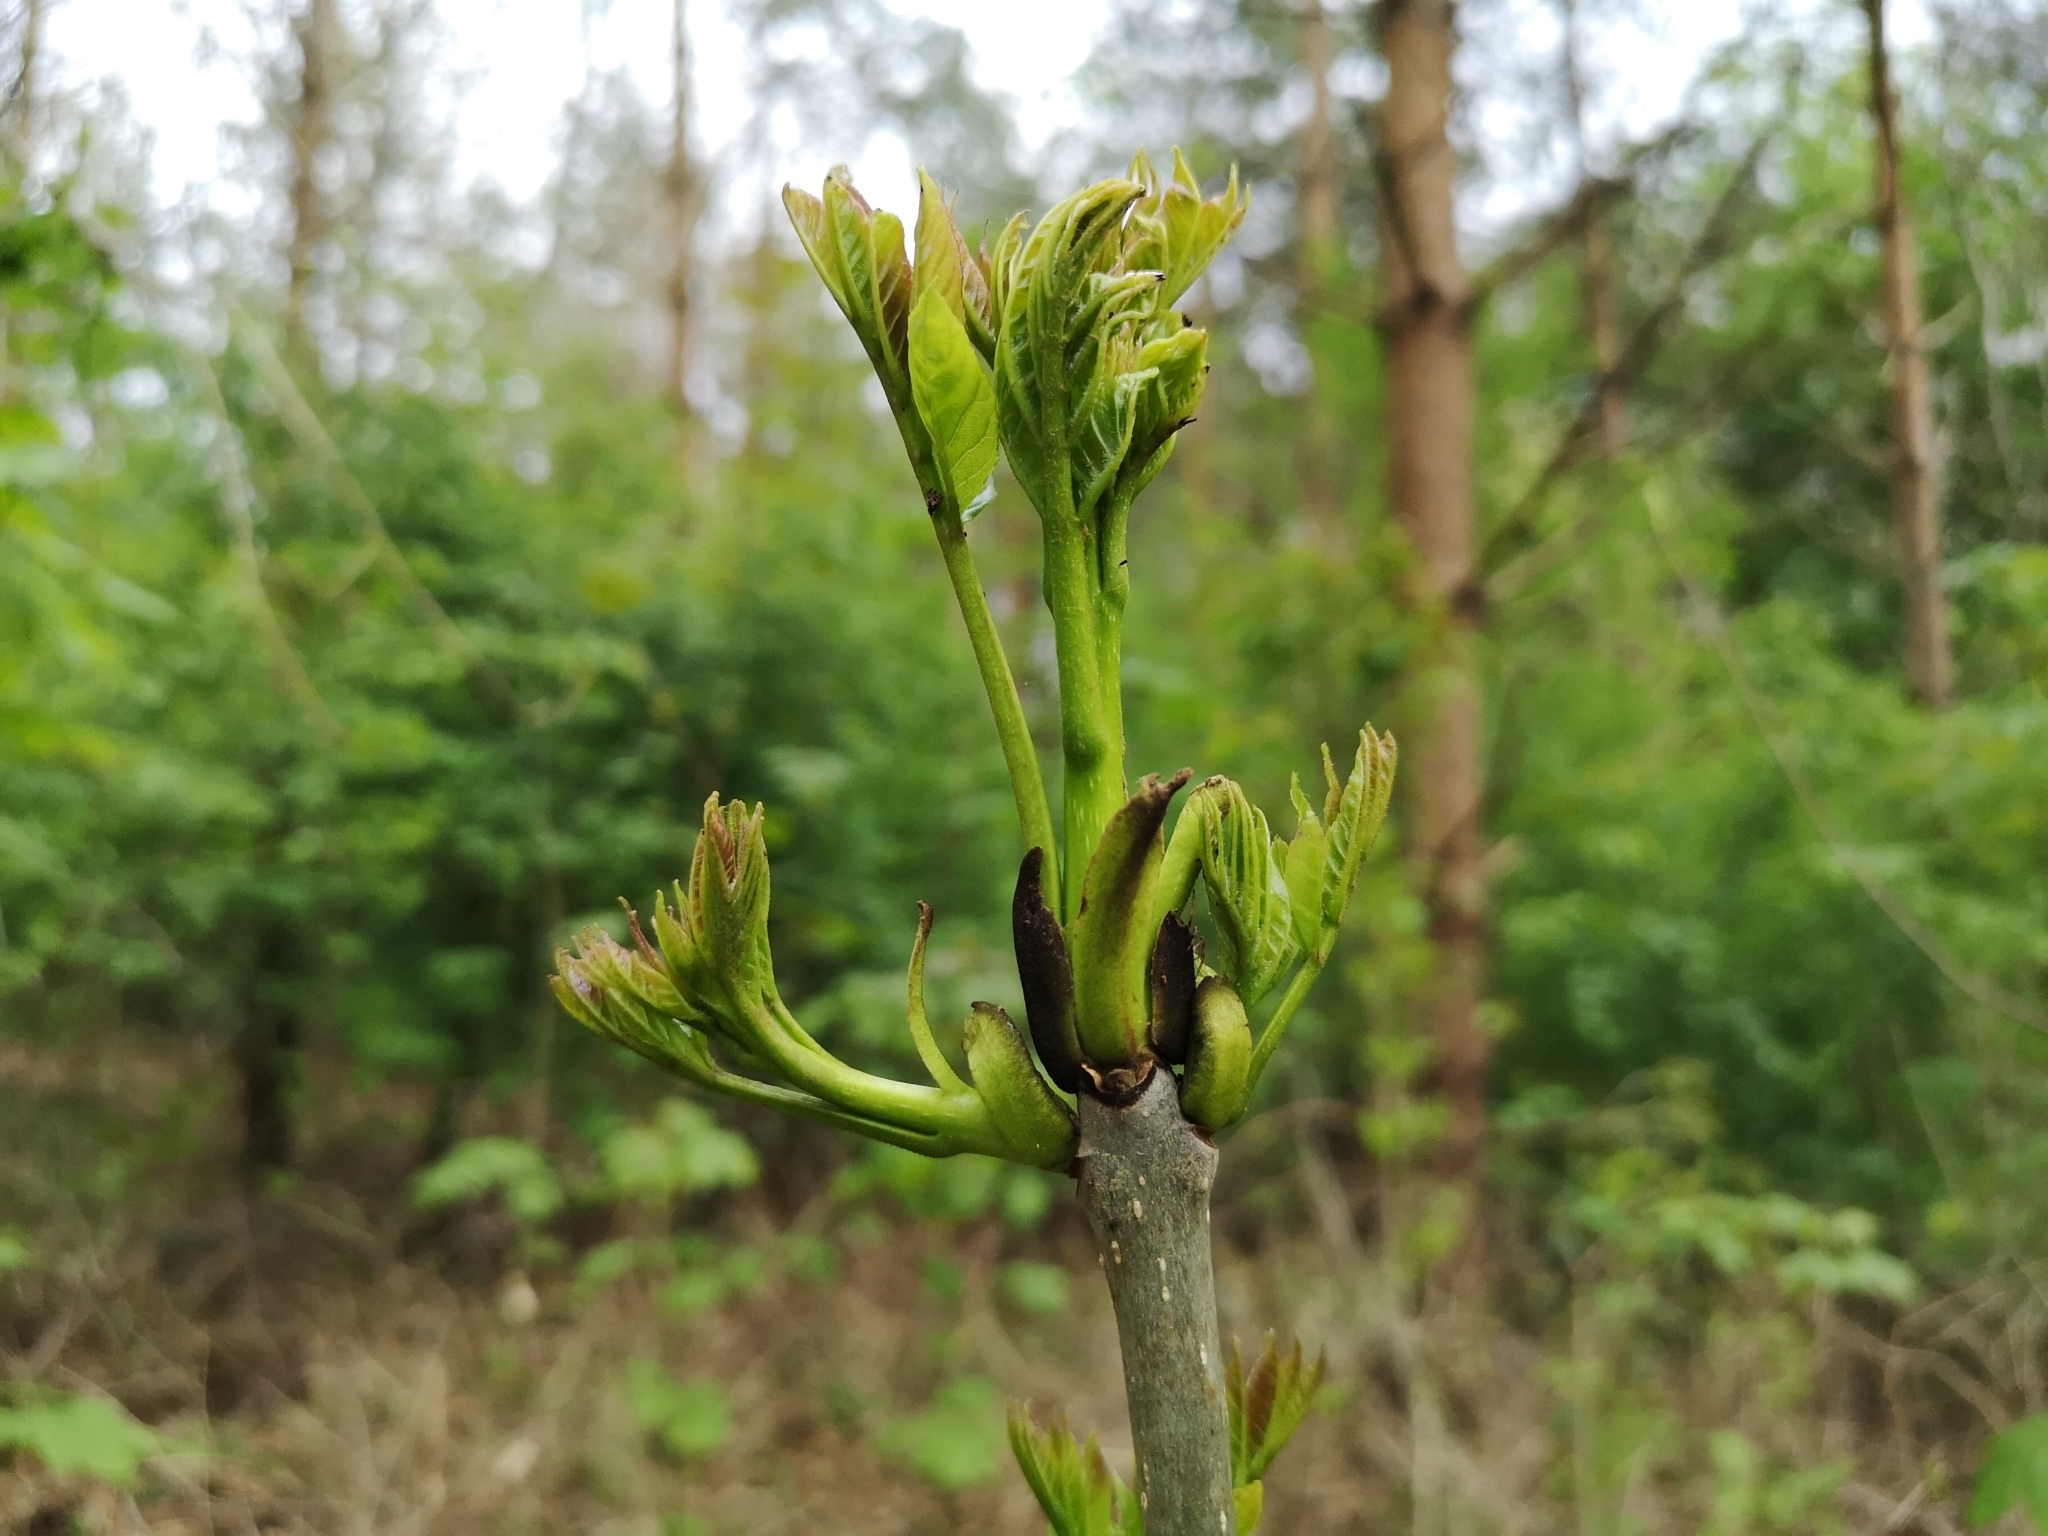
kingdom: Plantae
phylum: Tracheophyta
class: Magnoliopsida
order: Lamiales
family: Oleaceae
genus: Fraxinus
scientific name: Fraxinus excelsior
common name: European ash
